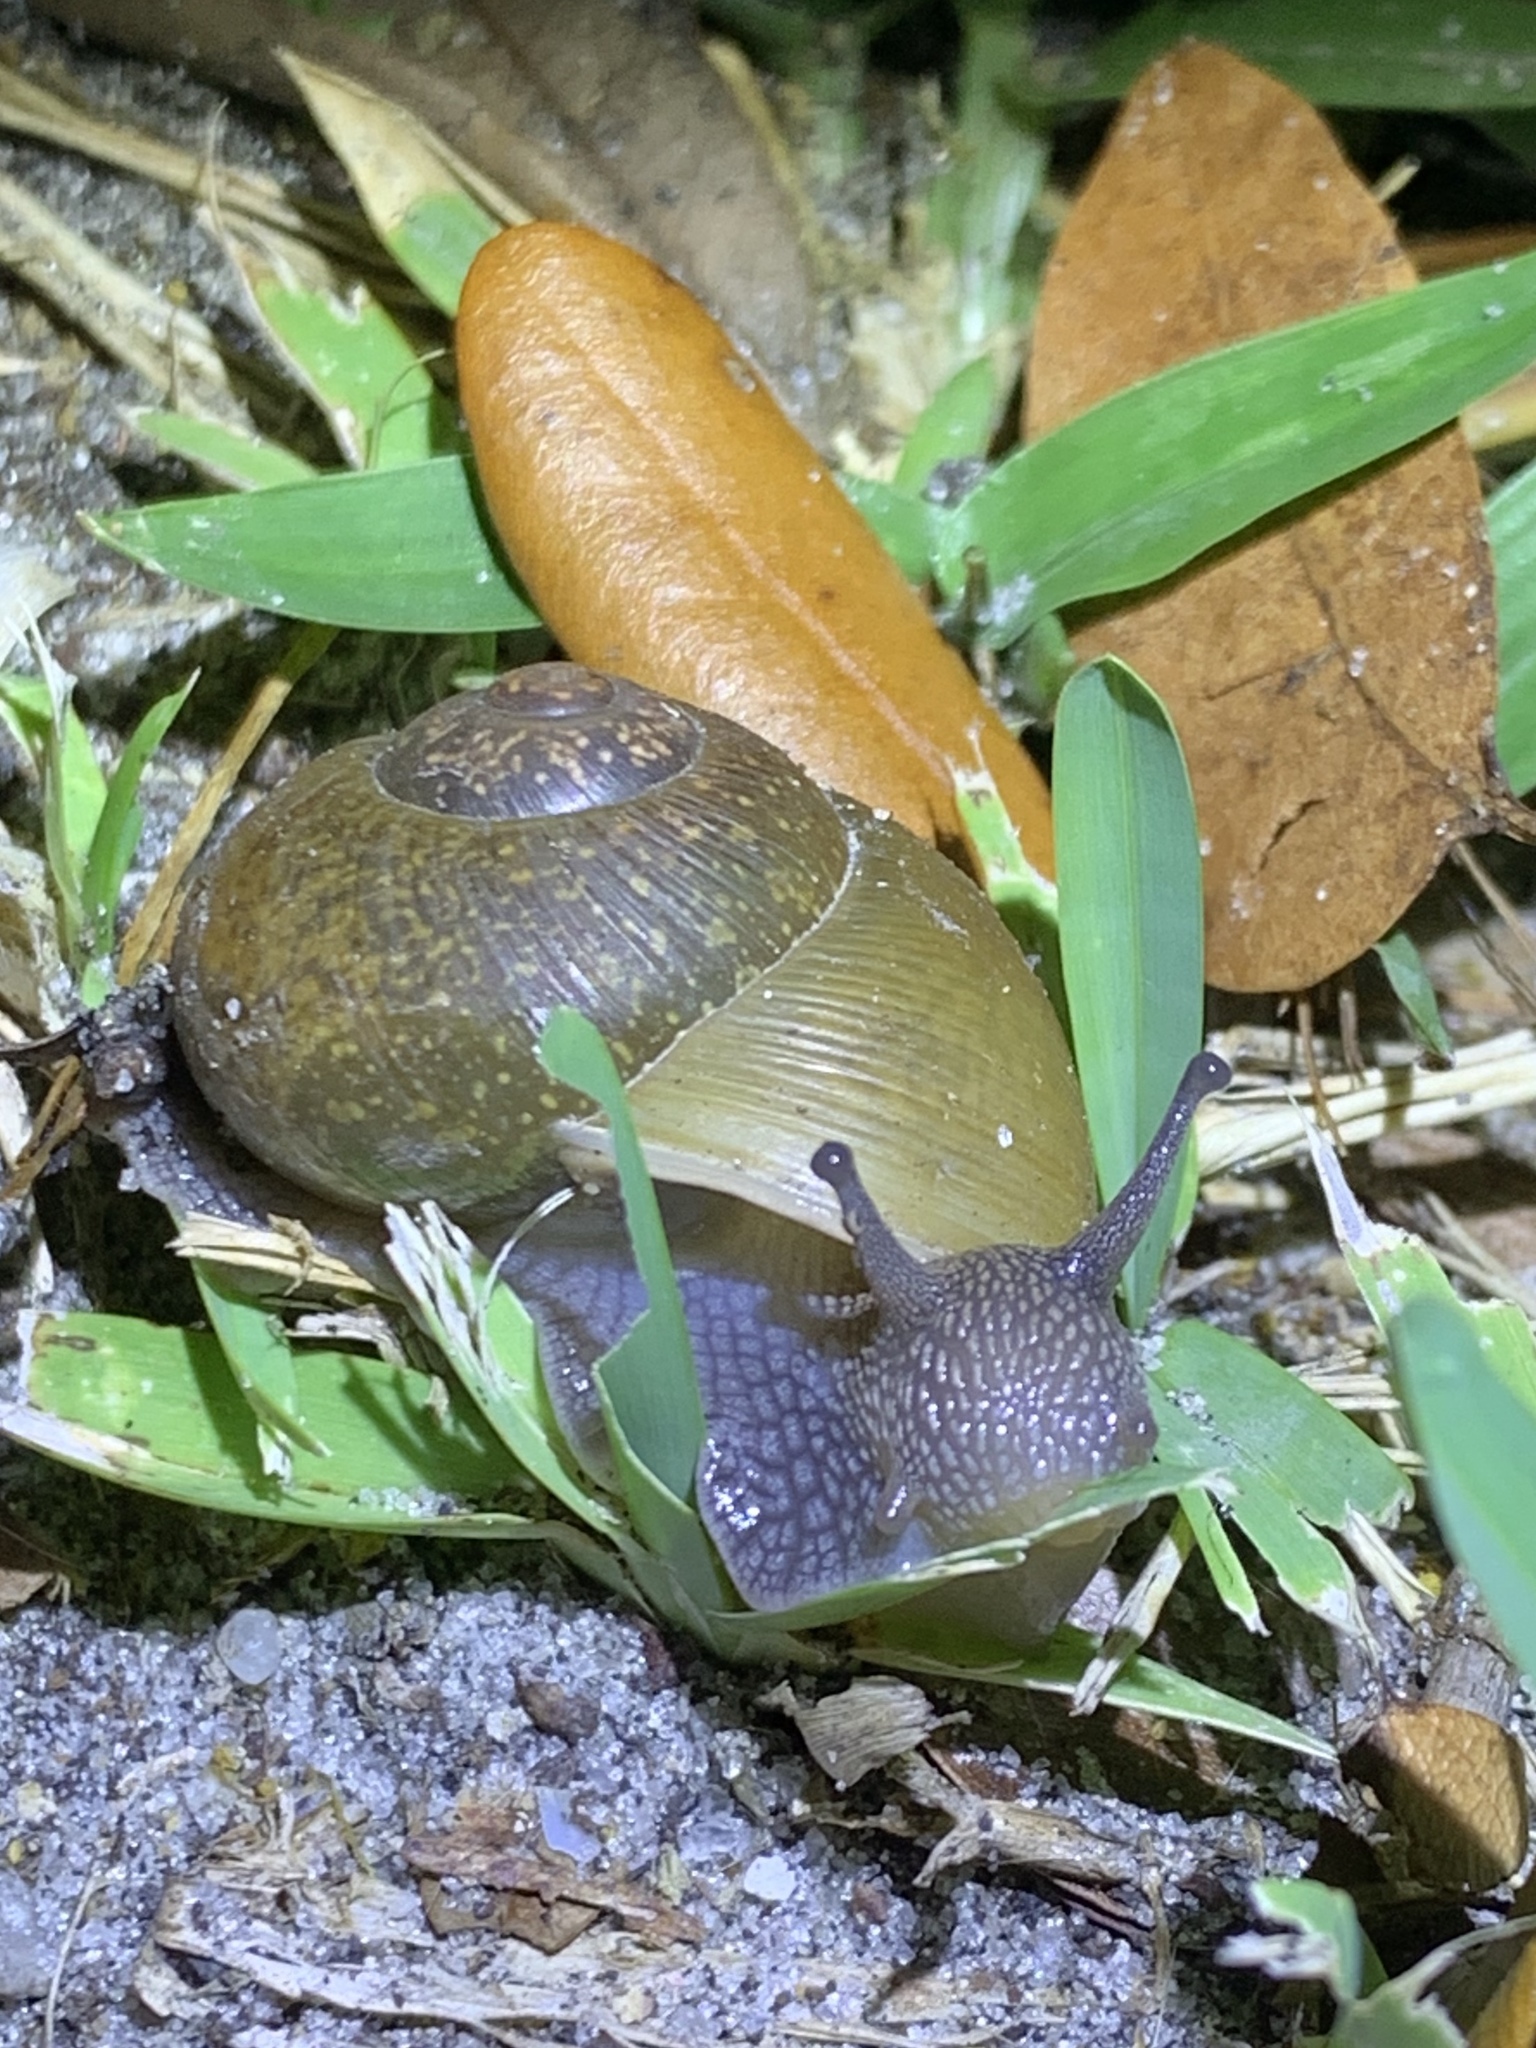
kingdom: Animalia
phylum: Mollusca
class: Gastropoda
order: Stylommatophora
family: Zachrysiidae
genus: Zachrysia
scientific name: Zachrysia provisoria
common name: Garden zachrysia
